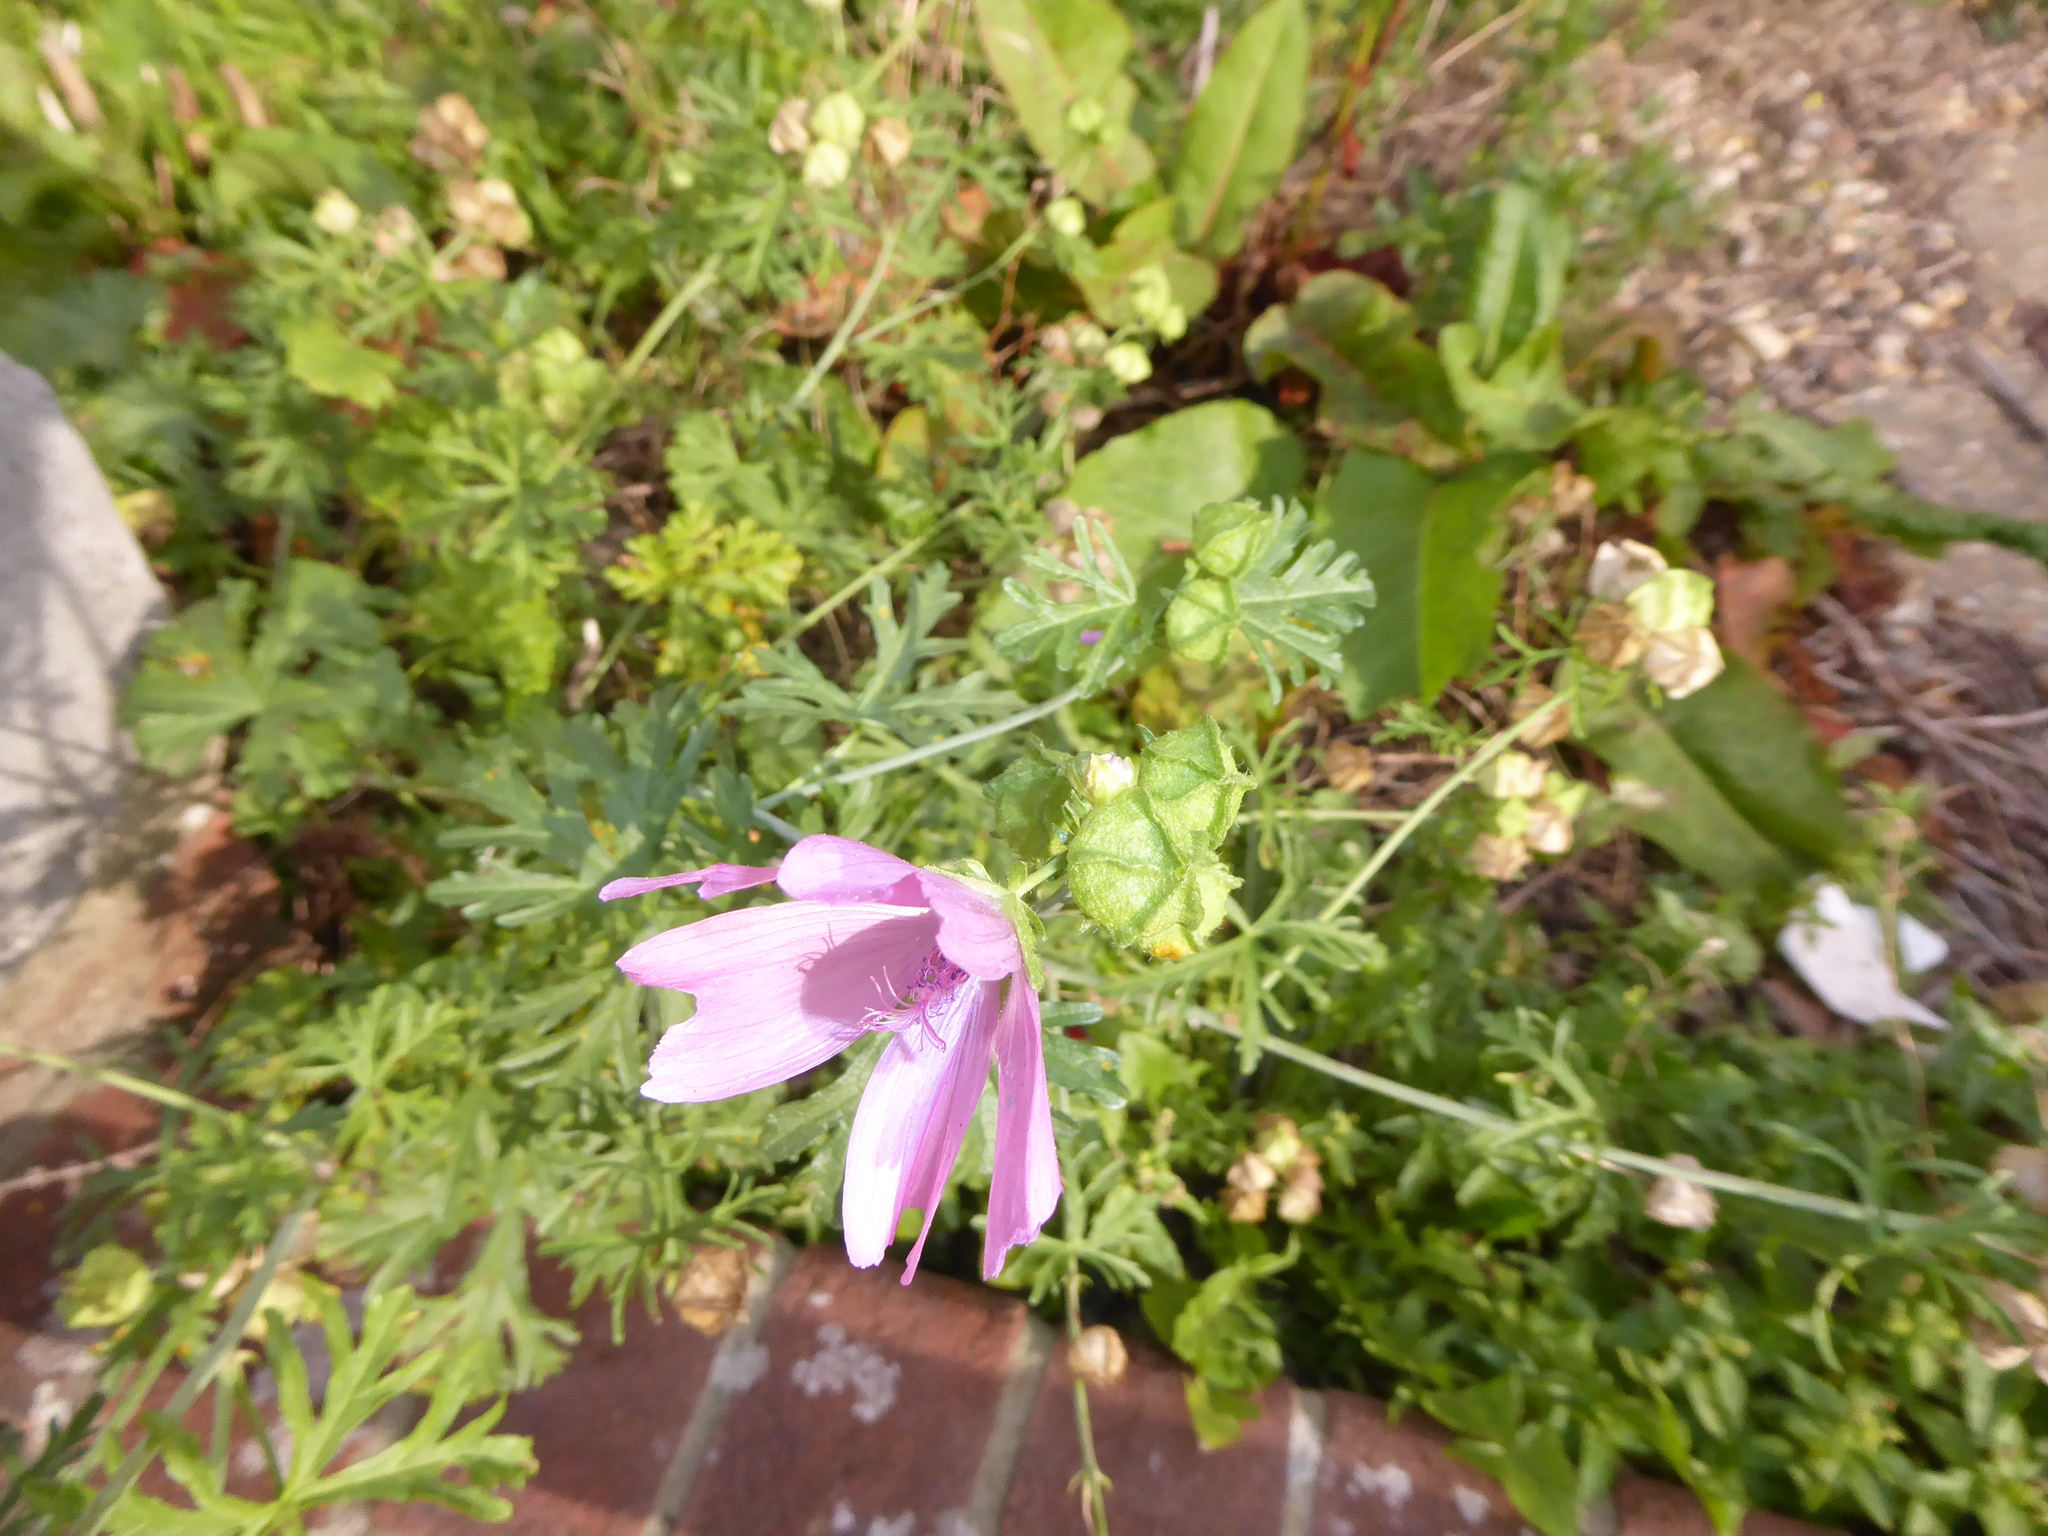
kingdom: Plantae
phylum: Tracheophyta
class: Magnoliopsida
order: Malvales
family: Malvaceae
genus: Malva
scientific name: Malva moschata
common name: Musk mallow
